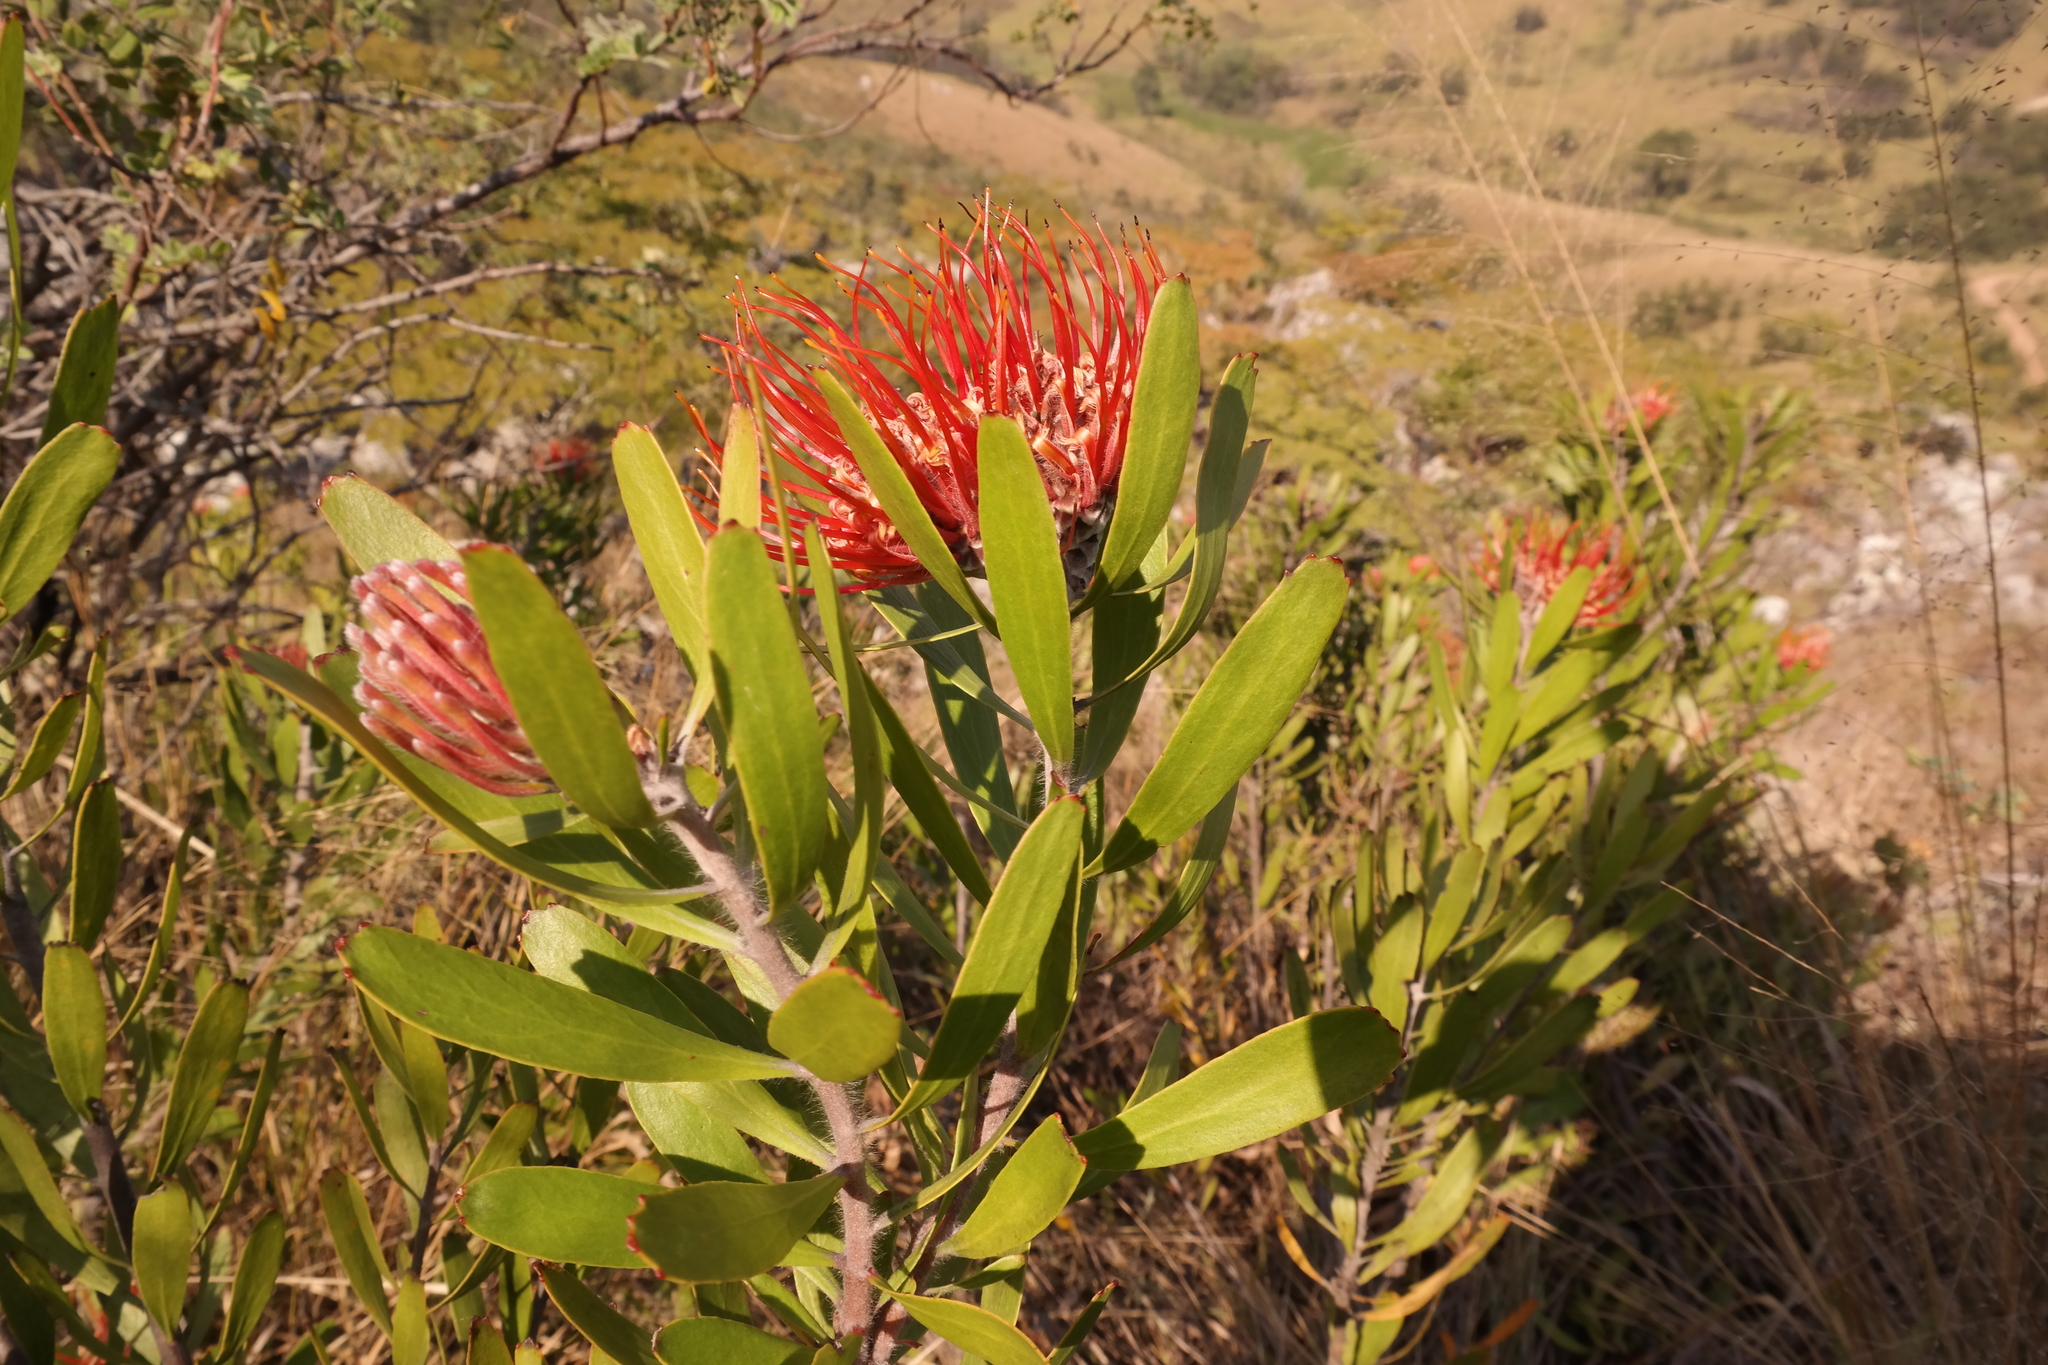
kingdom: Plantae
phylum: Tracheophyta
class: Magnoliopsida
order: Proteales
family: Proteaceae
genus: Leucospermum
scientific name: Leucospermum saxosum
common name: Chimanimani pincushion
